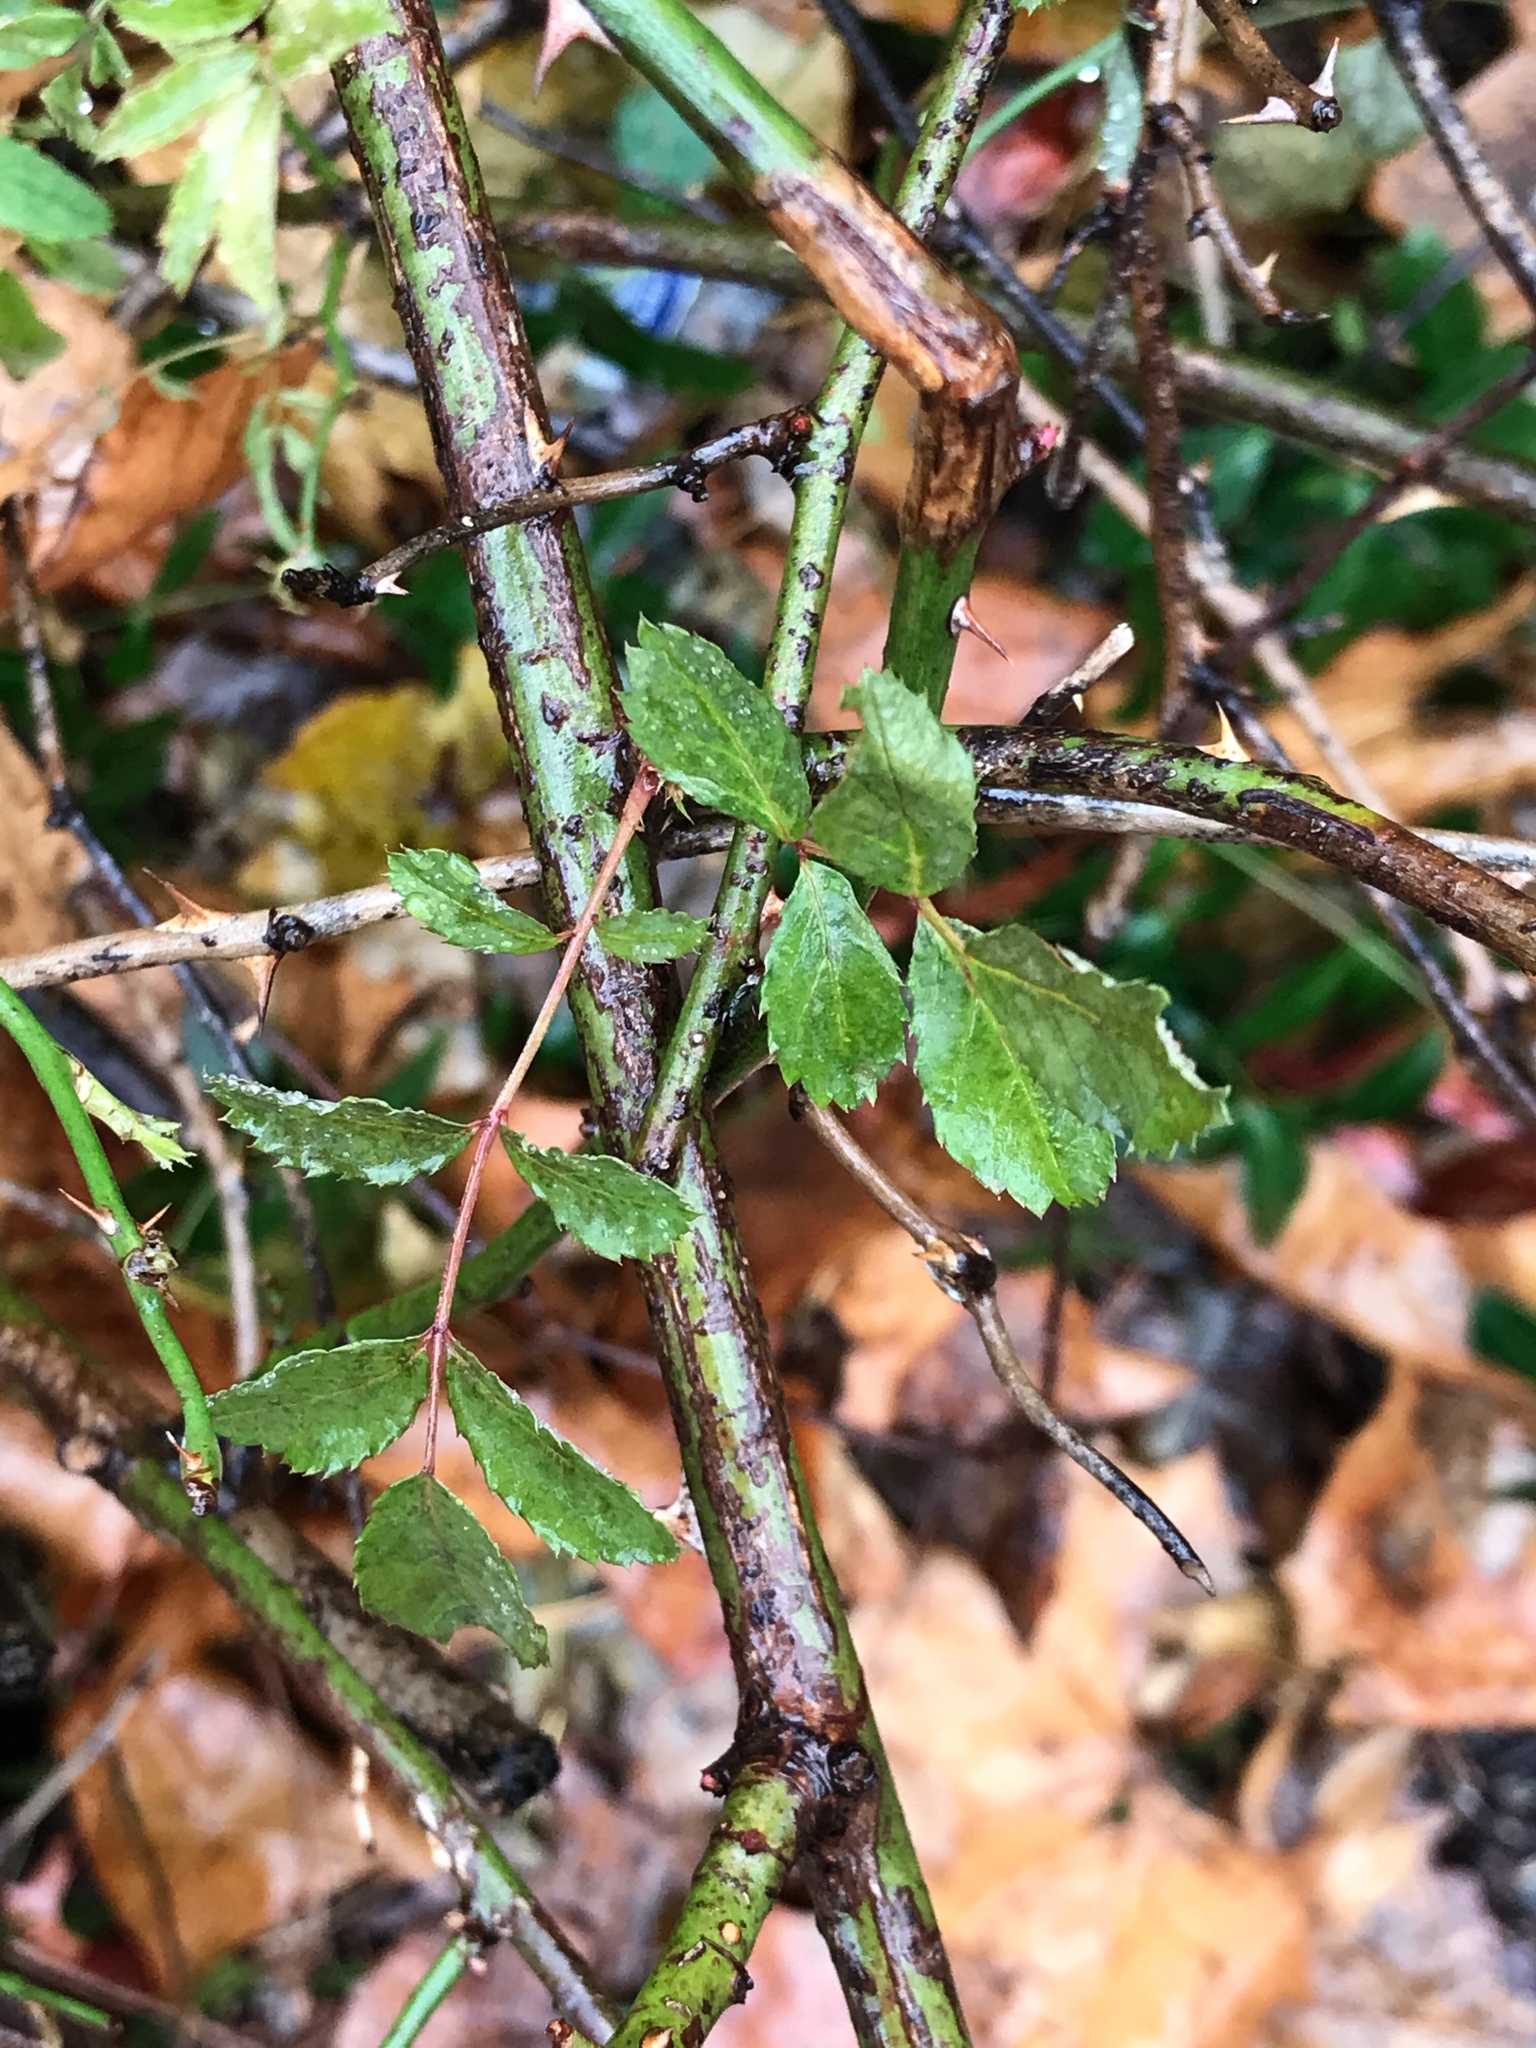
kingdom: Plantae
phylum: Tracheophyta
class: Magnoliopsida
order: Rosales
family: Rosaceae
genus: Rosa
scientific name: Rosa multiflora
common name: Multiflora rose
